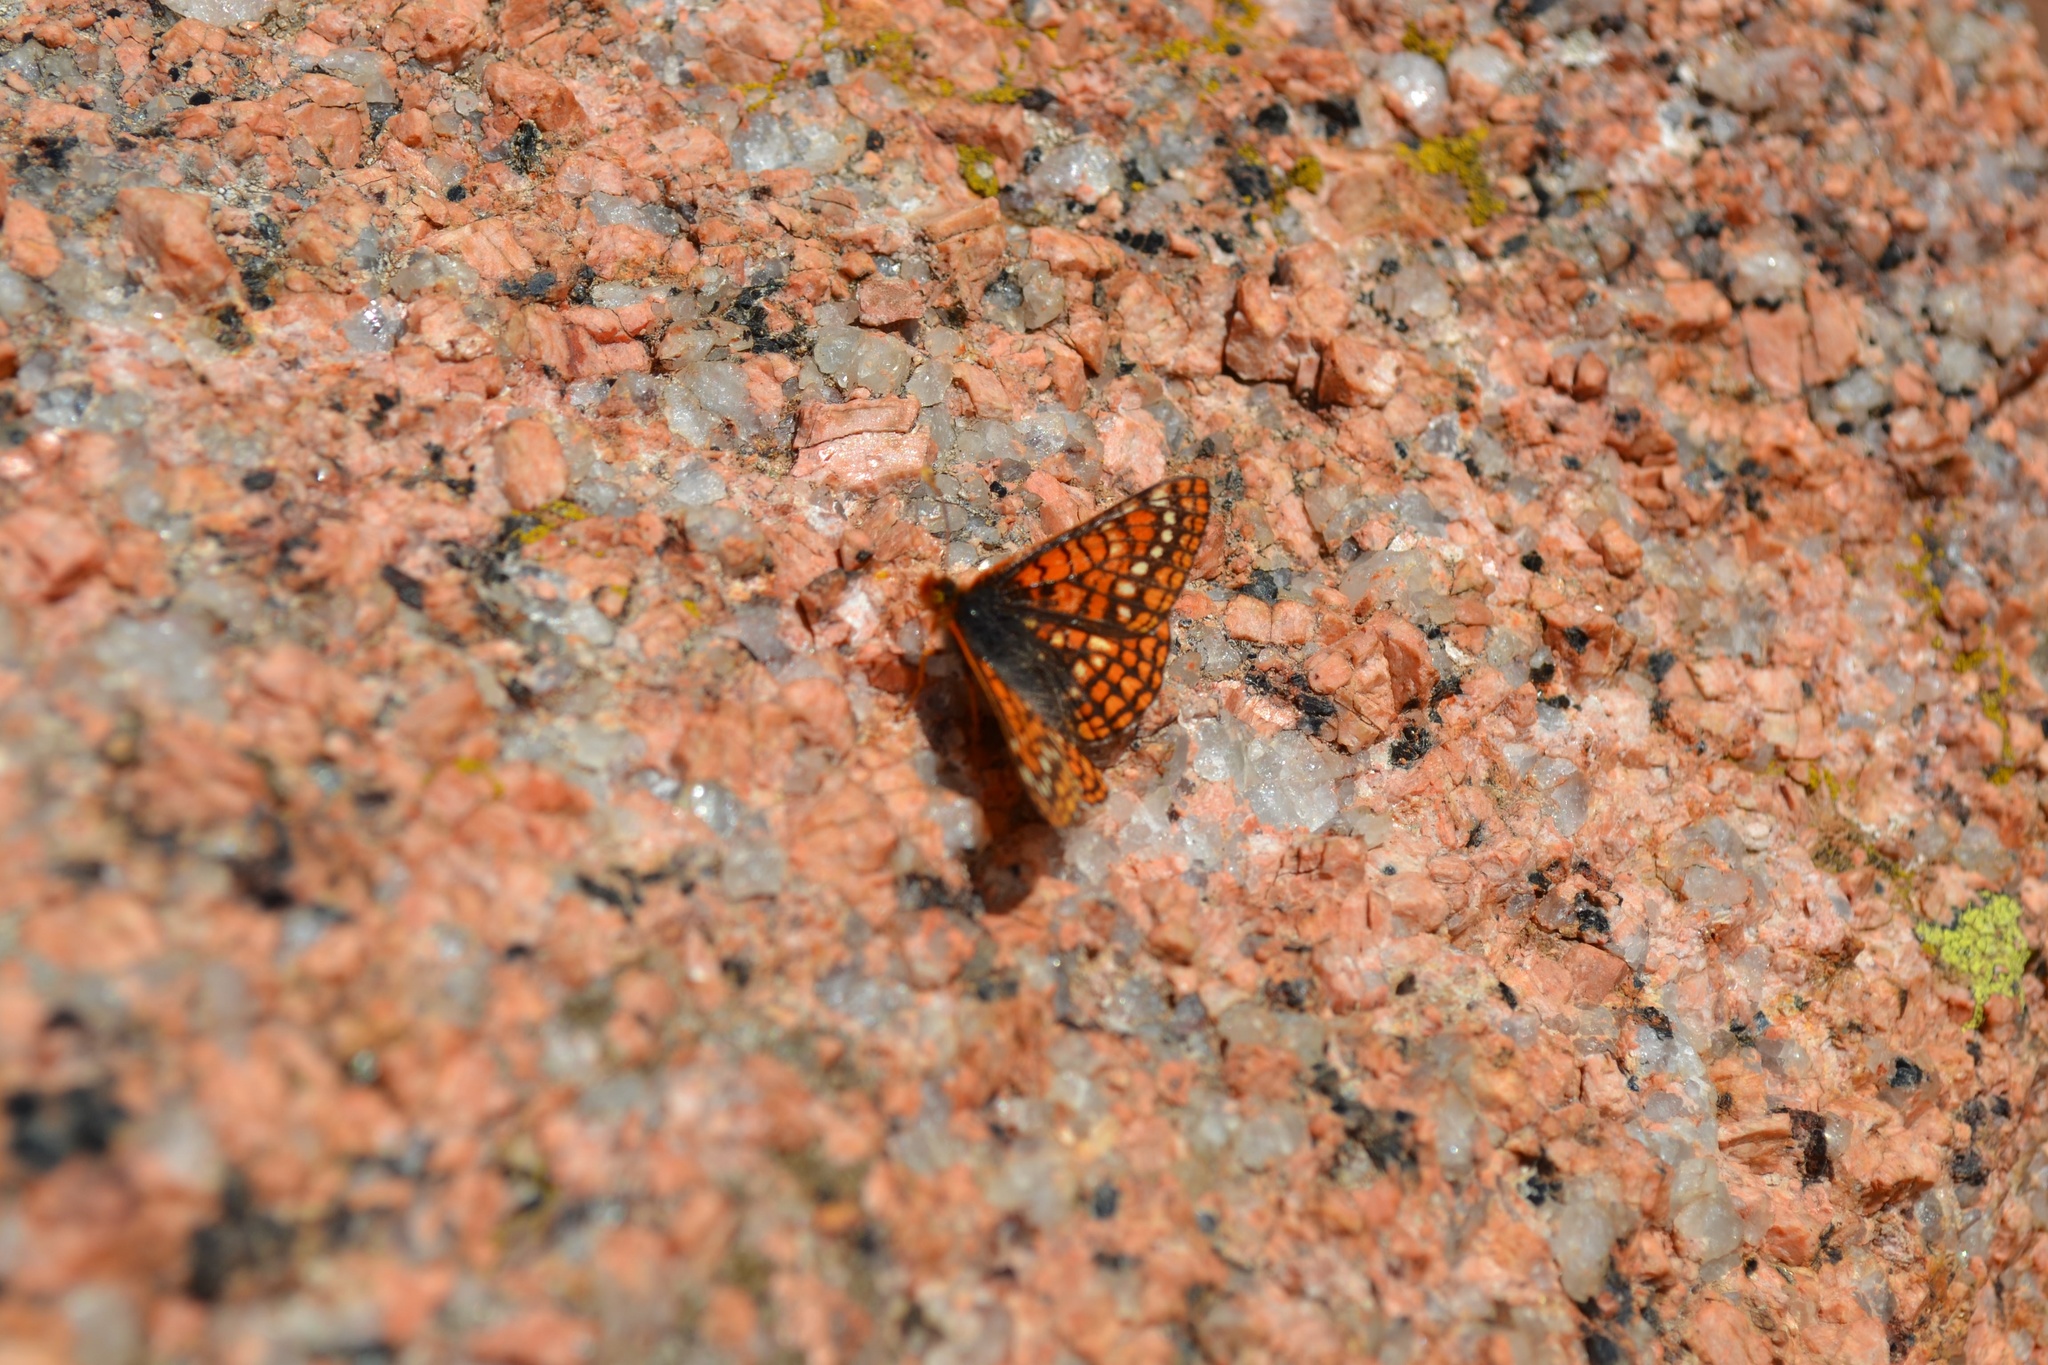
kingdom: Animalia
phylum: Arthropoda
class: Insecta
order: Lepidoptera
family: Nymphalidae
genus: Occidryas
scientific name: Occidryas anicia
